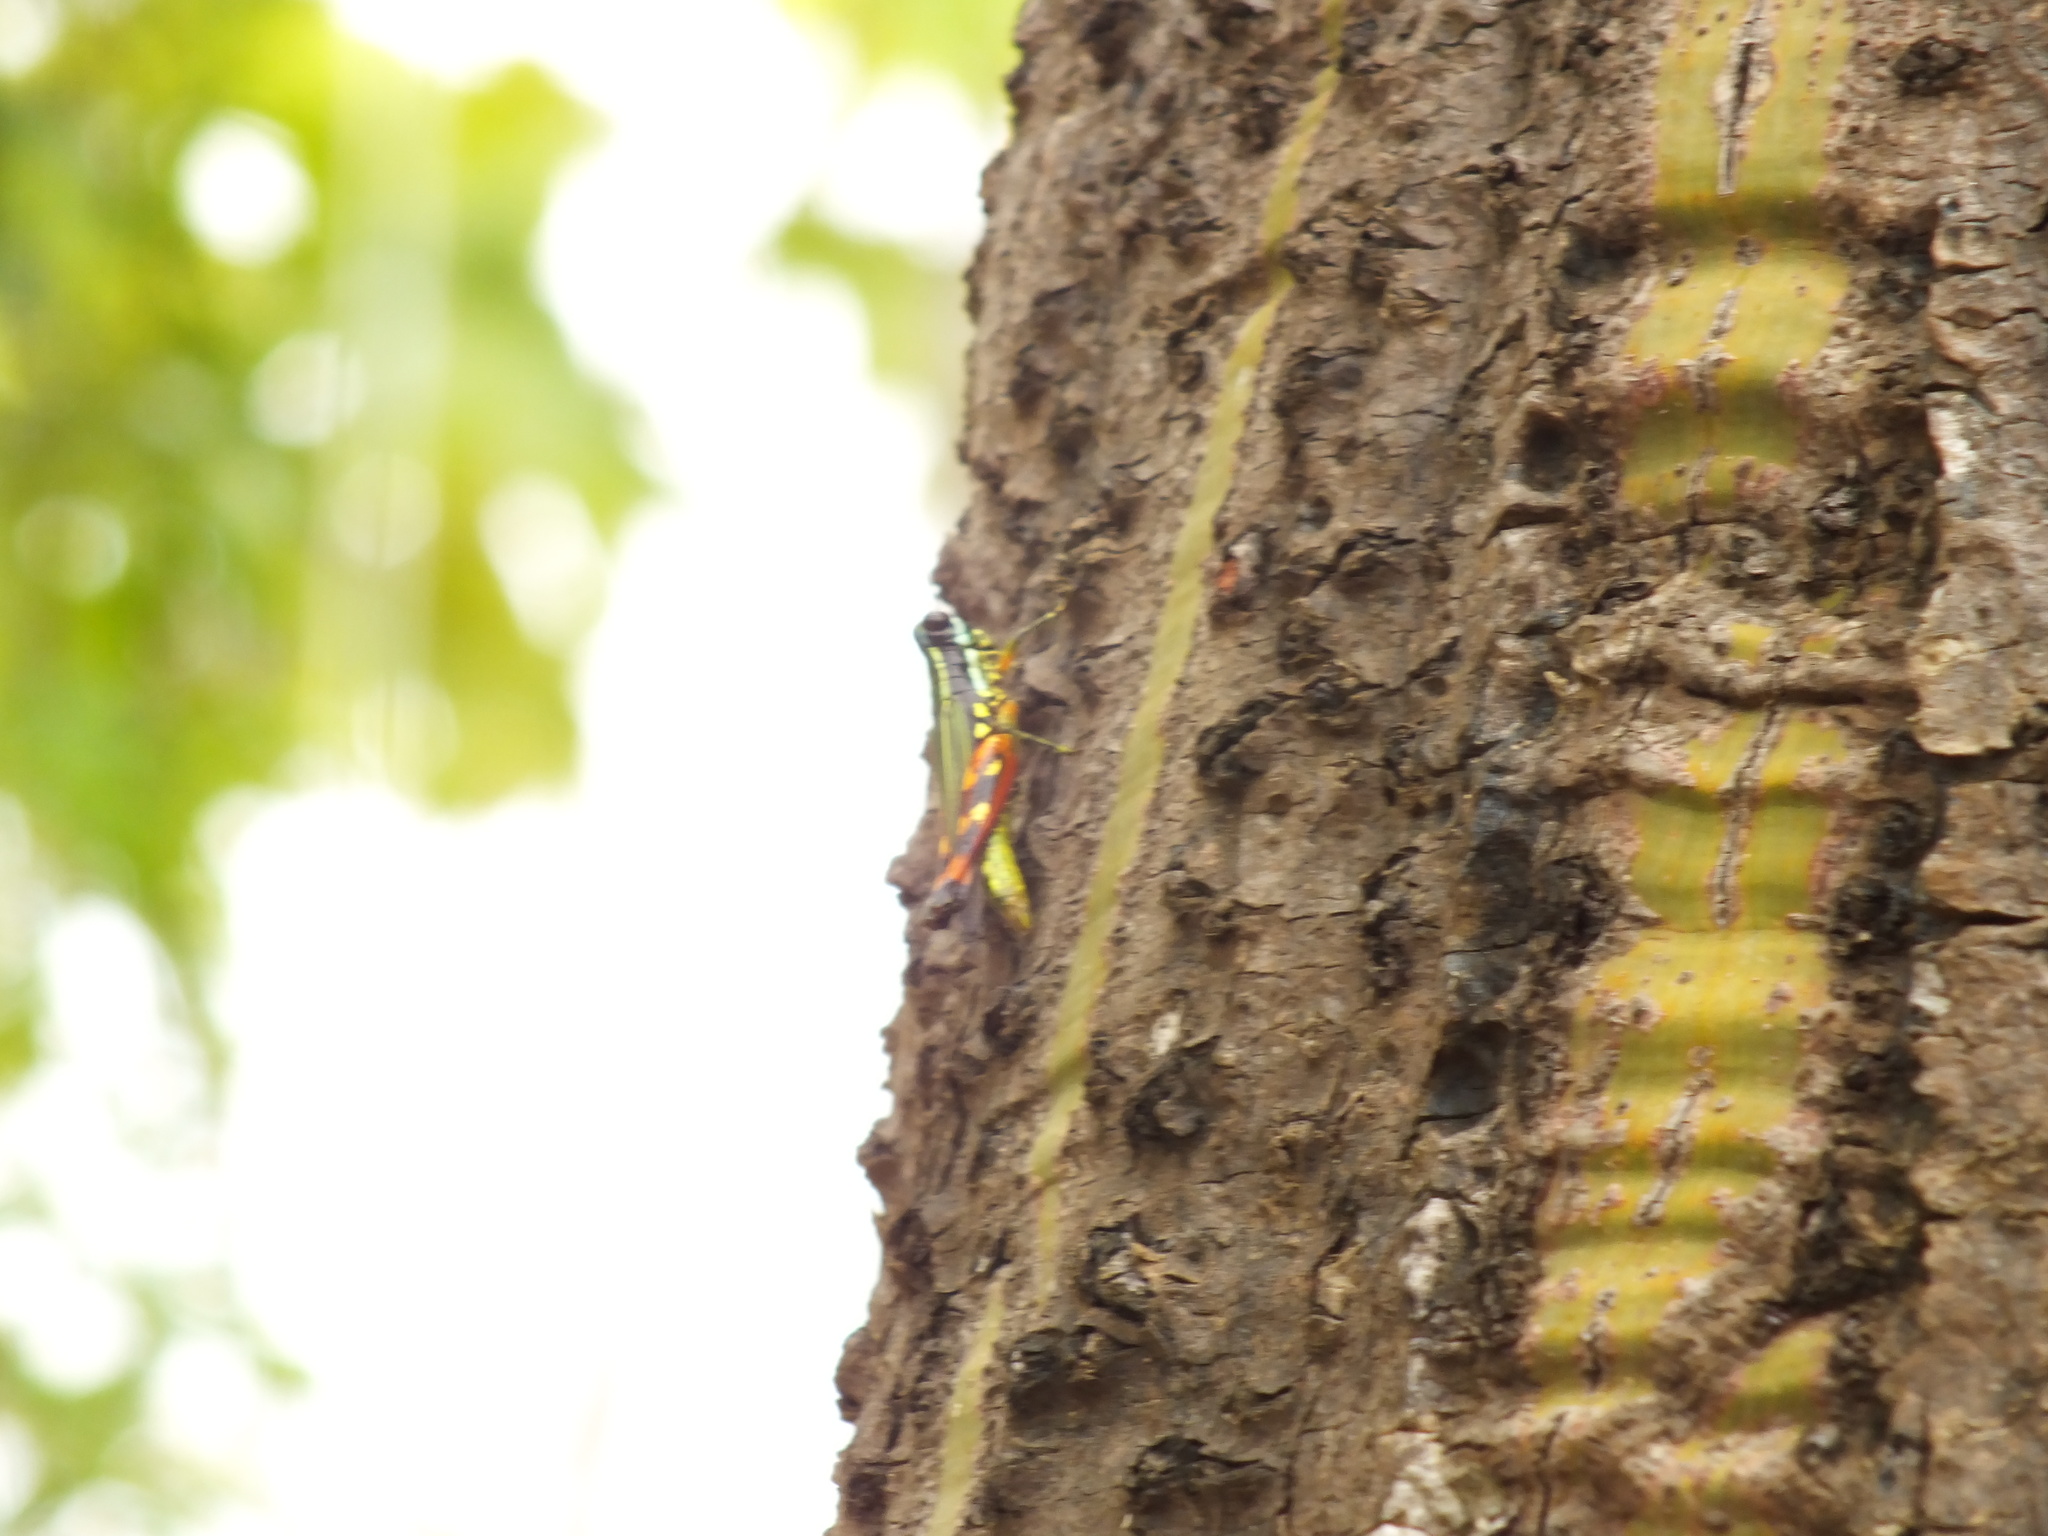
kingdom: Animalia
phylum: Arthropoda
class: Insecta
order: Orthoptera
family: Acrididae
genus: Tetrataenia
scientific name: Tetrataenia surinama
